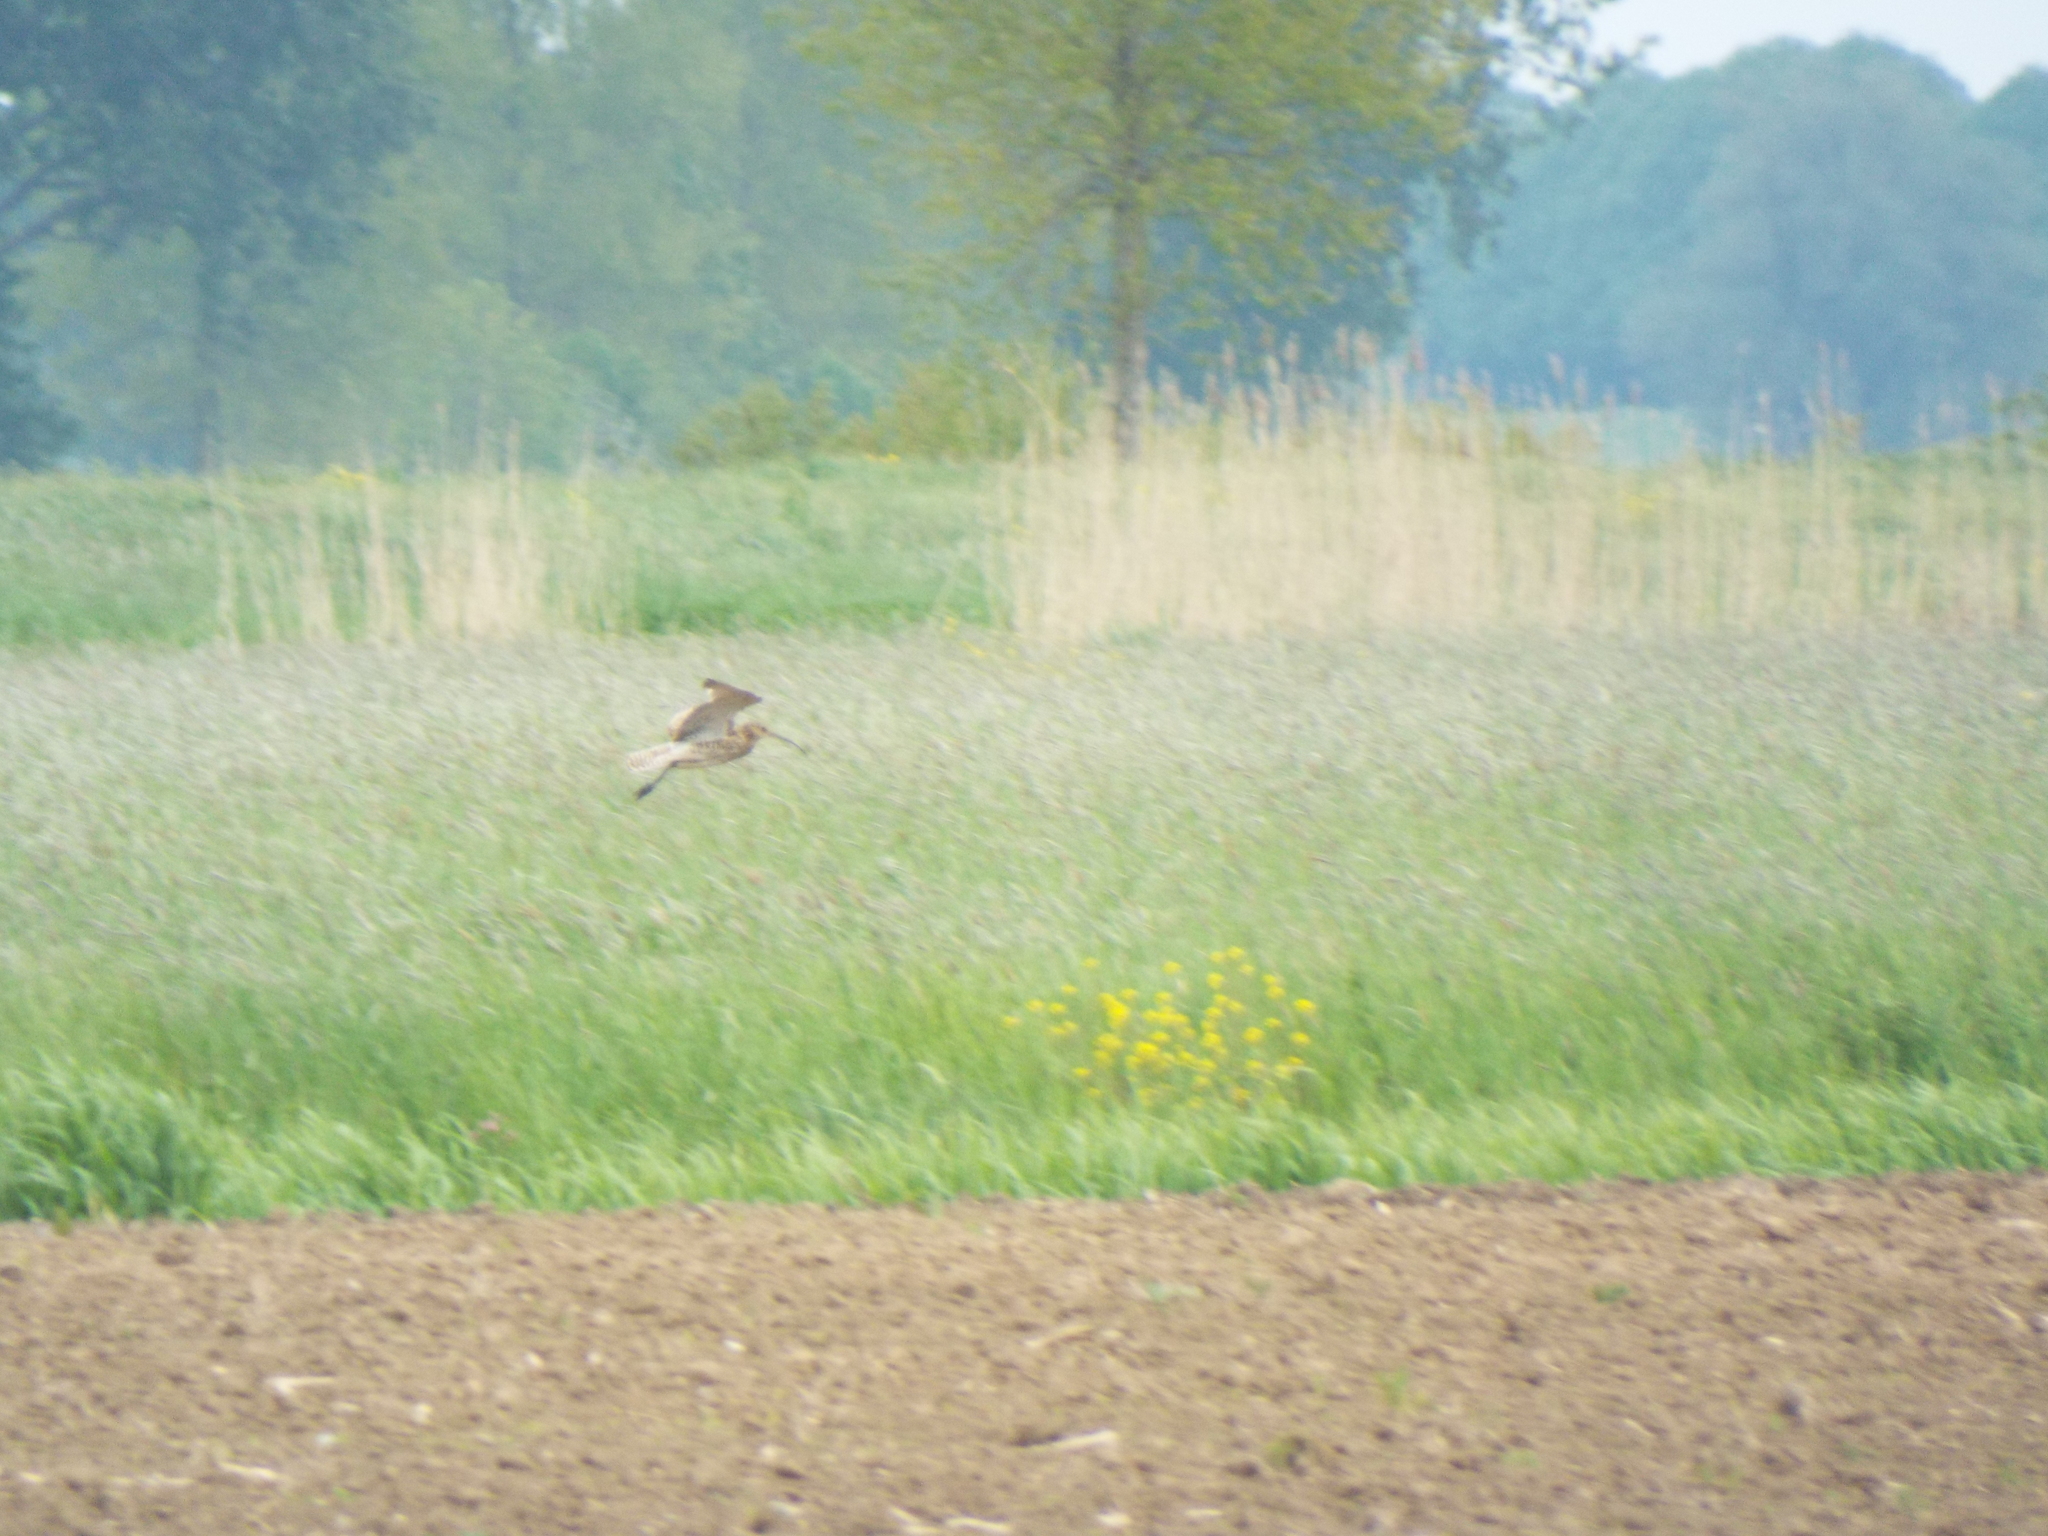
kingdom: Animalia
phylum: Chordata
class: Aves
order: Charadriiformes
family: Scolopacidae
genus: Numenius
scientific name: Numenius arquata
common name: Eurasian curlew
